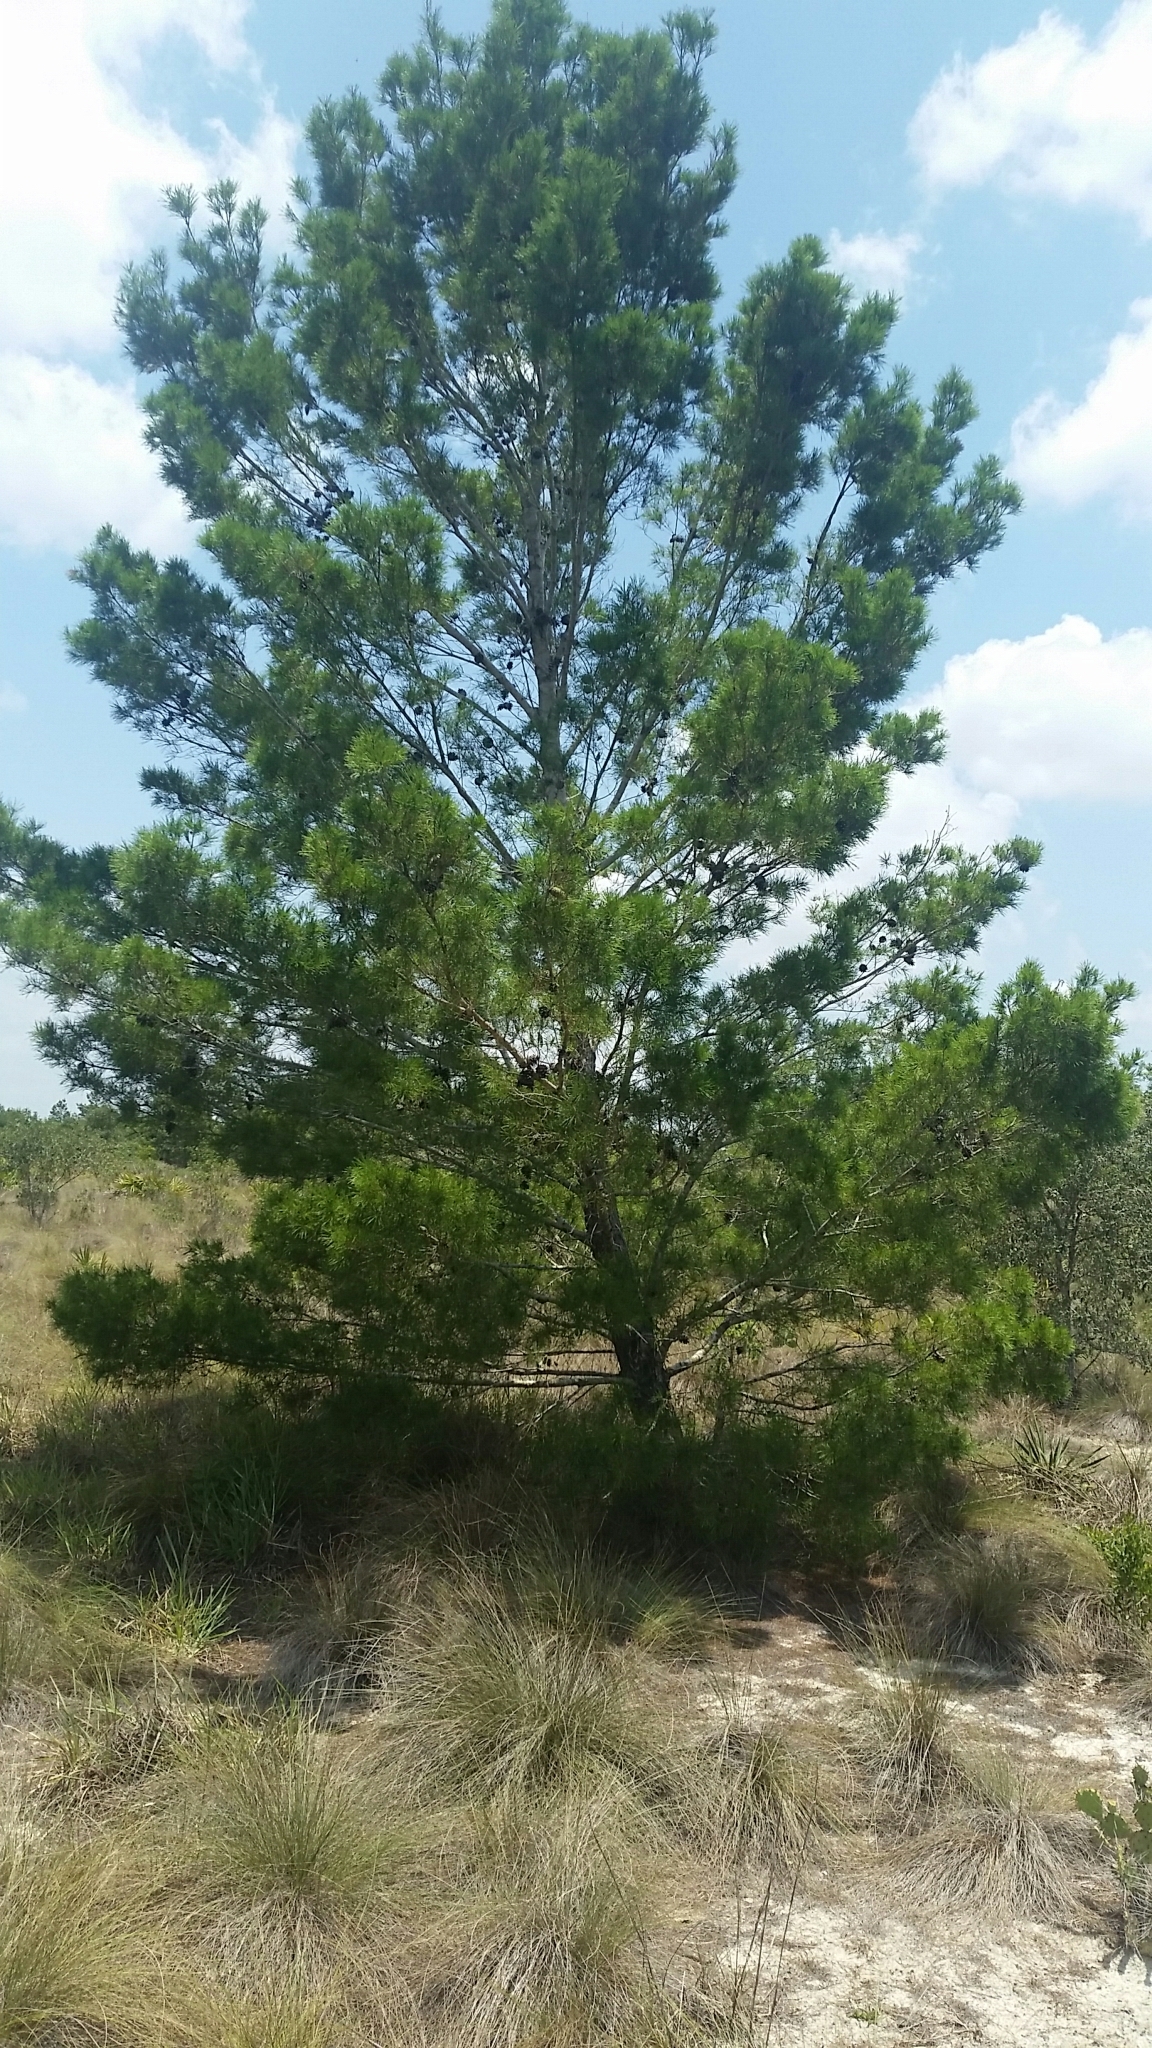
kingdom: Plantae
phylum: Tracheophyta
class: Pinopsida
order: Pinales
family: Pinaceae
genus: Pinus
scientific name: Pinus clausa
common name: Sand pine
